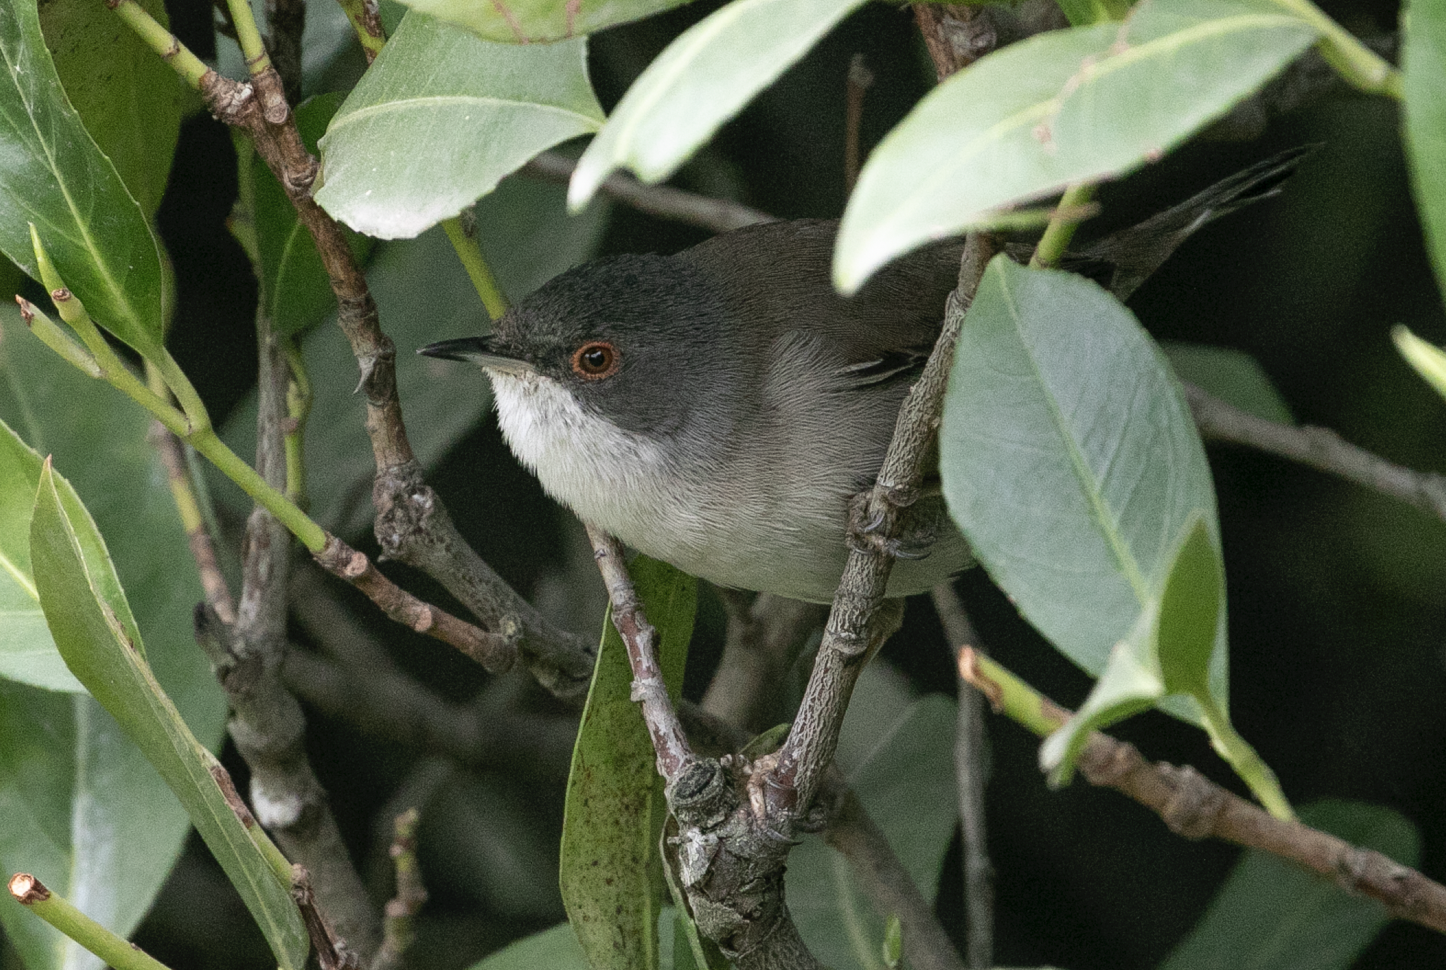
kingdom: Animalia
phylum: Chordata
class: Aves
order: Passeriformes
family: Sylviidae
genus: Curruca
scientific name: Curruca melanocephala
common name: Sardinian warbler
